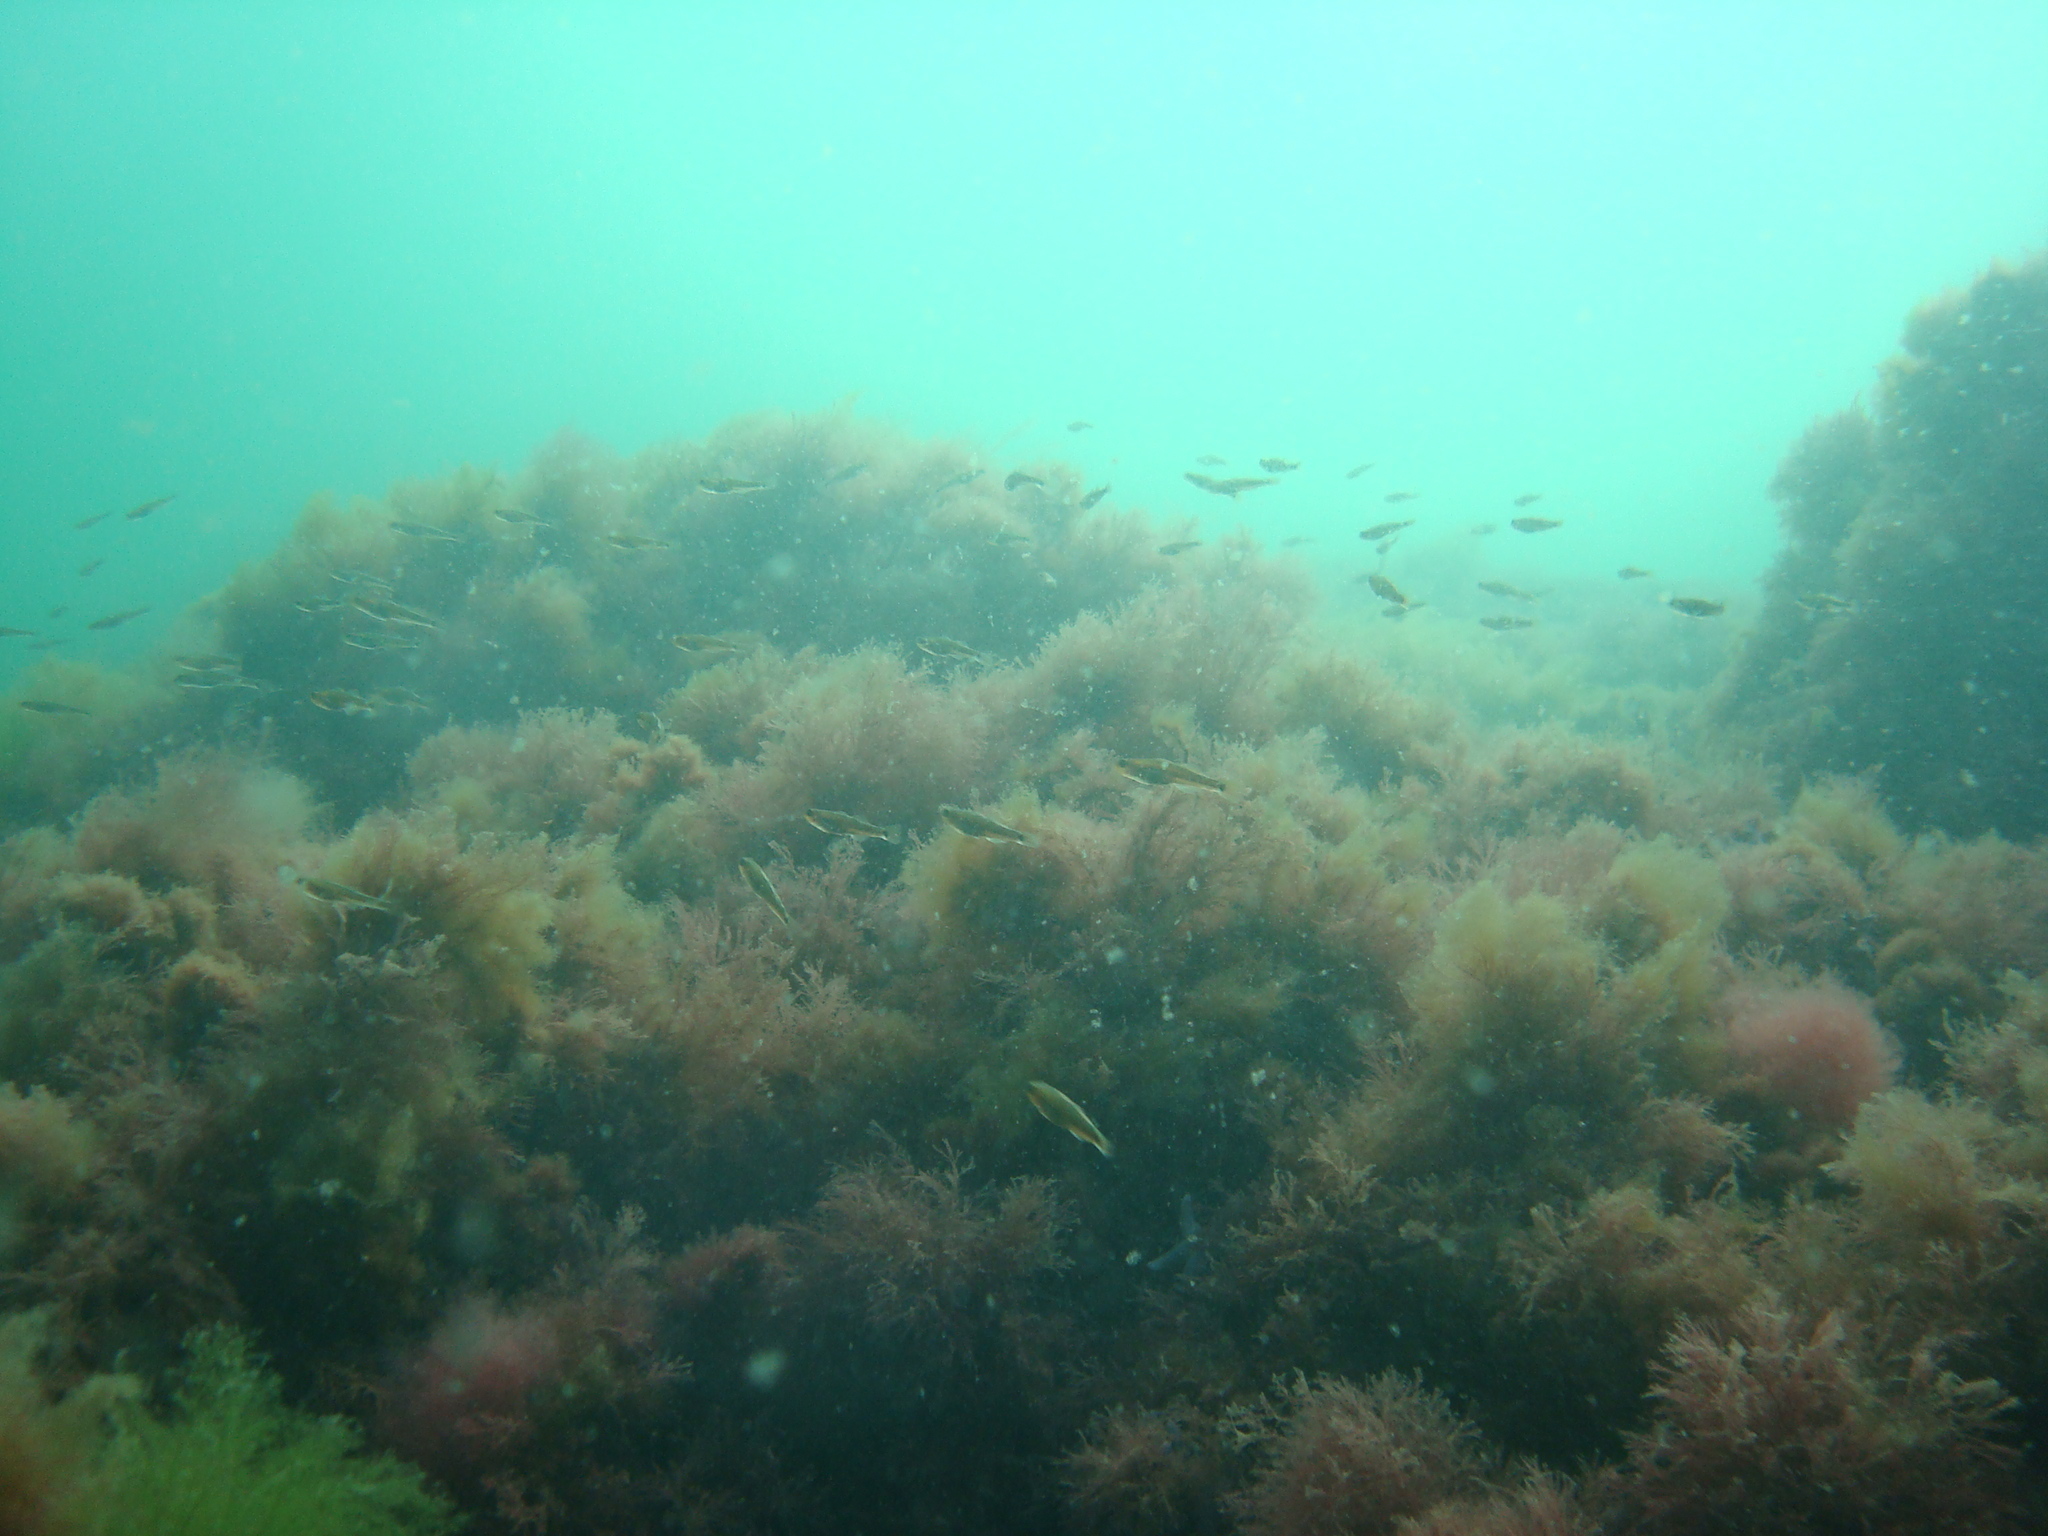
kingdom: Animalia
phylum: Chordata
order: Perciformes
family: Gobiidae
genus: Gobiusculus
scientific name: Gobiusculus flavescens
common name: Two-spotted goby
